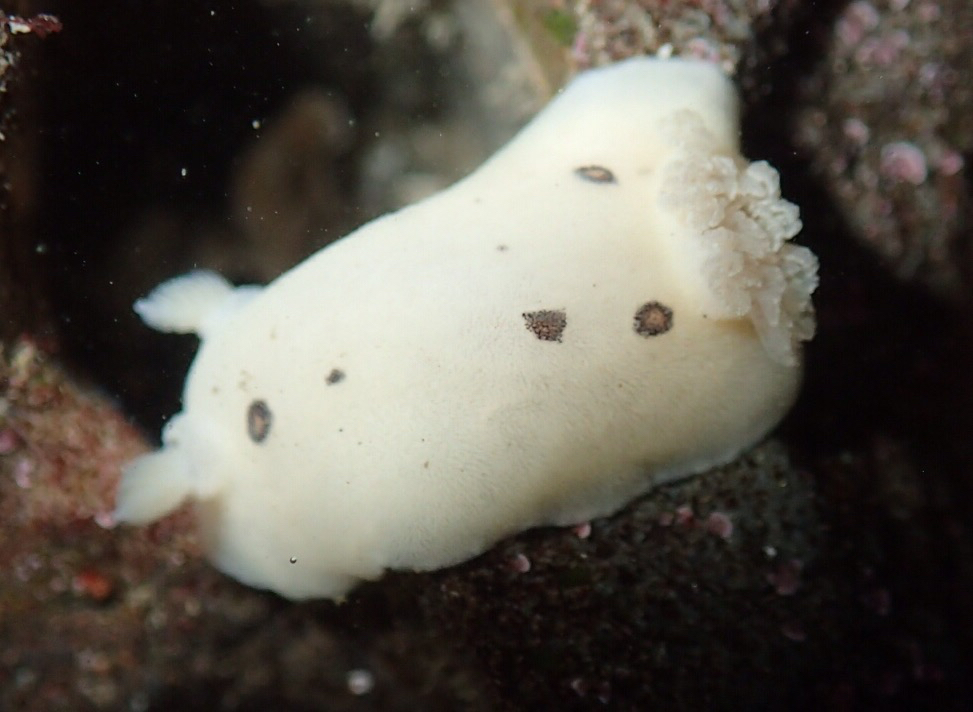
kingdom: Animalia
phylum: Mollusca
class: Gastropoda
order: Nudibranchia
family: Discodorididae
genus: Diaulula
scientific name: Diaulula sandiegensis
